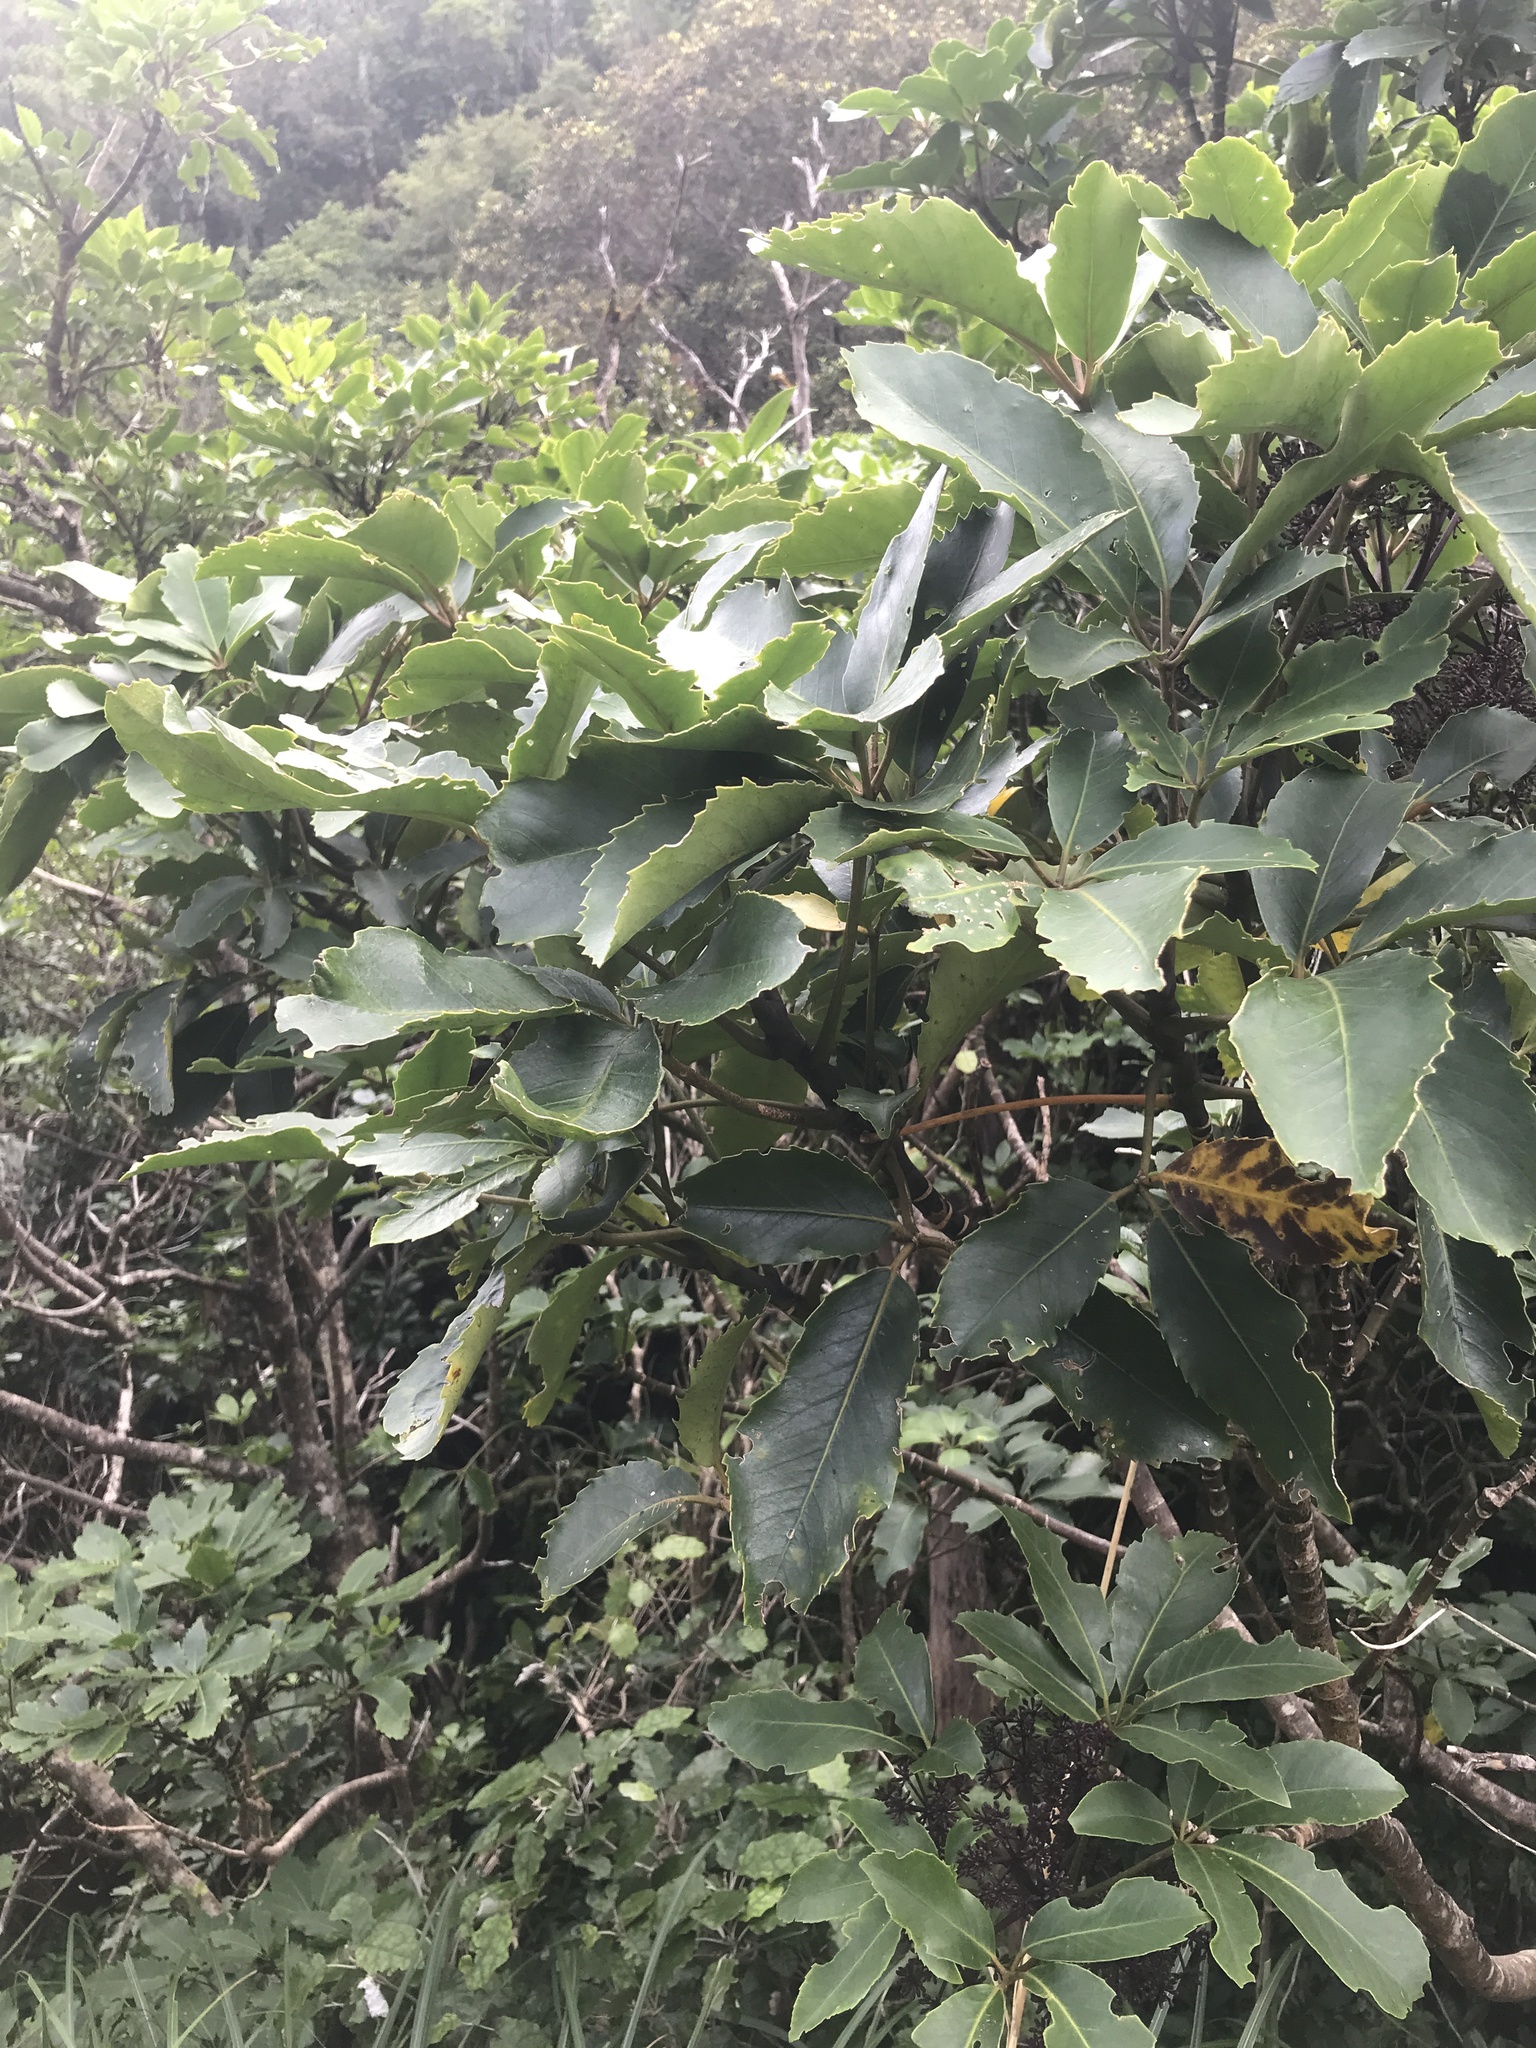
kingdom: Plantae
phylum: Tracheophyta
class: Magnoliopsida
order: Apiales
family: Araliaceae
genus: Neopanax
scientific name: Neopanax arboreus
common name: Five-fingers
